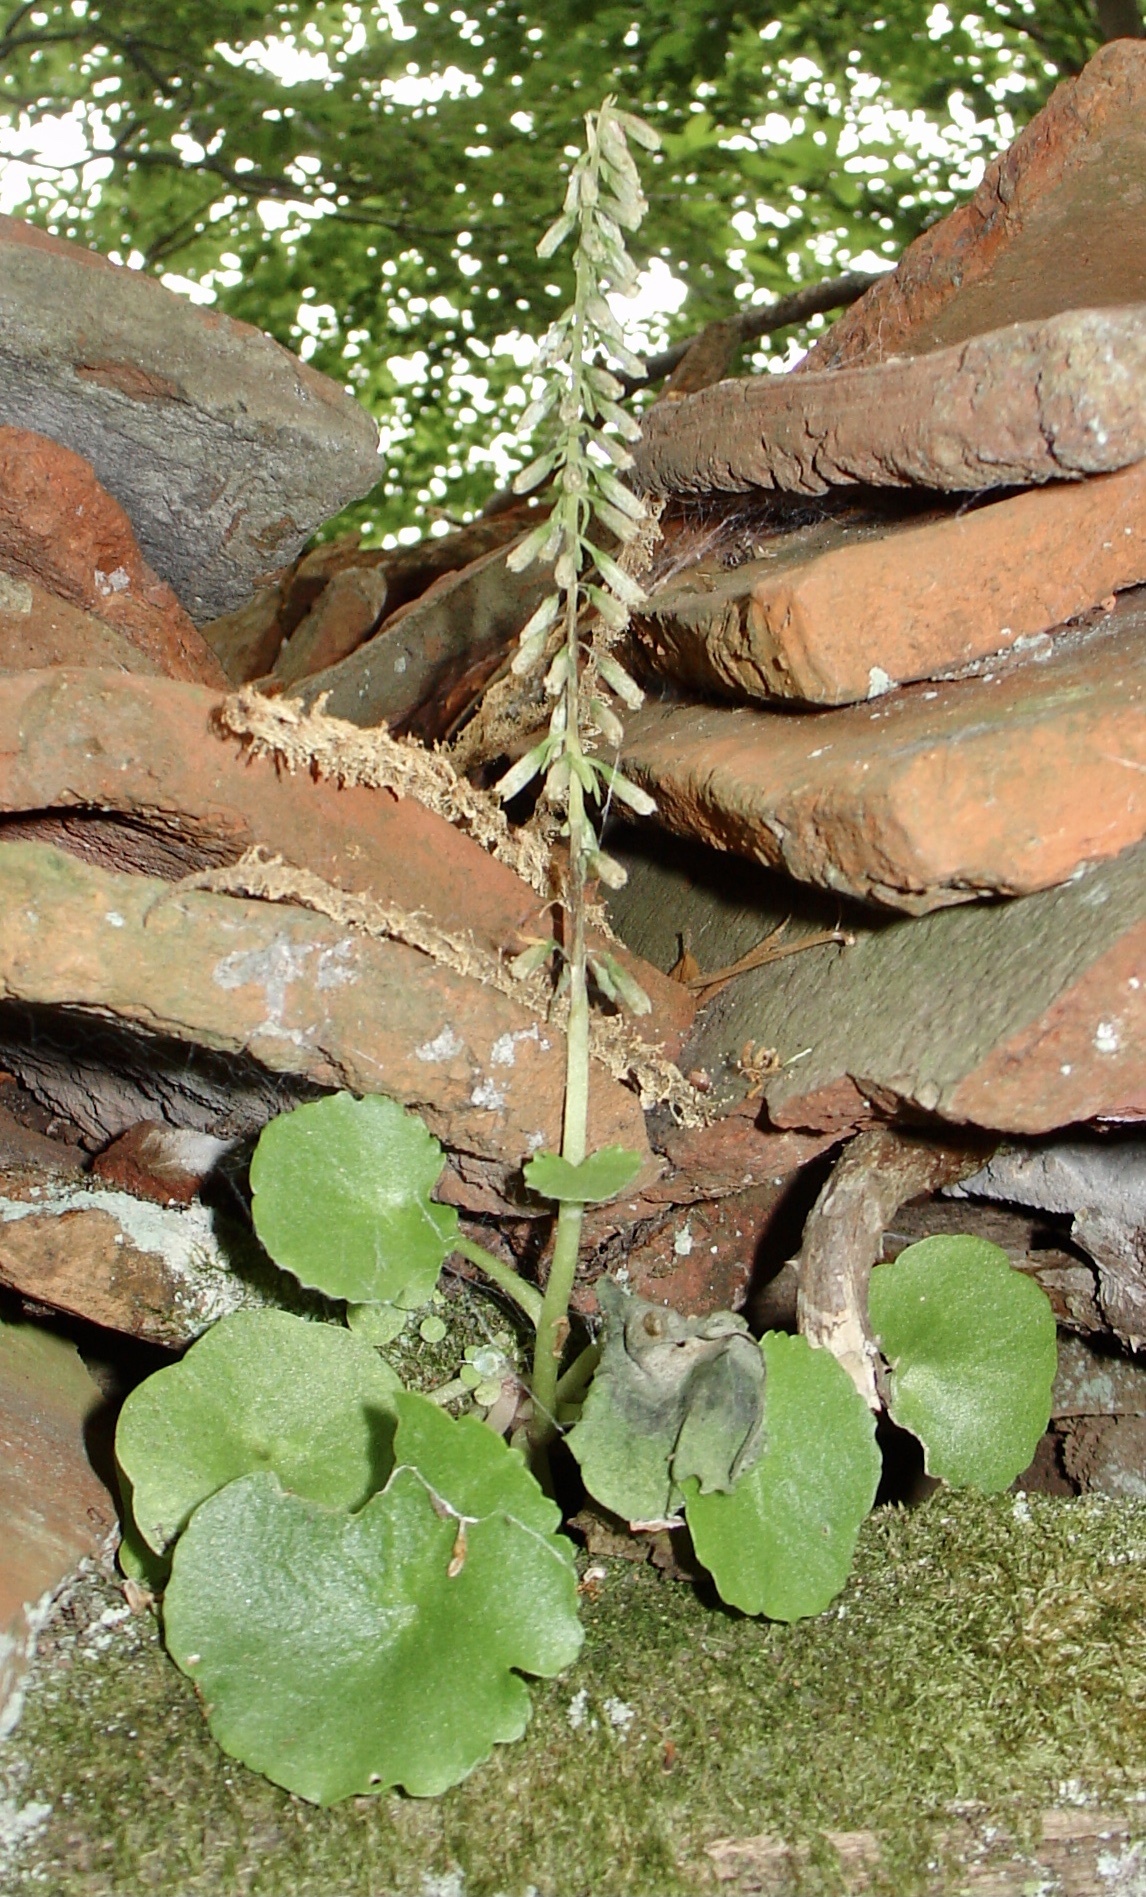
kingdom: Plantae
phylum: Tracheophyta
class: Magnoliopsida
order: Saxifragales
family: Crassulaceae
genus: Umbilicus
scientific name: Umbilicus rupestris
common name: Navelwort
